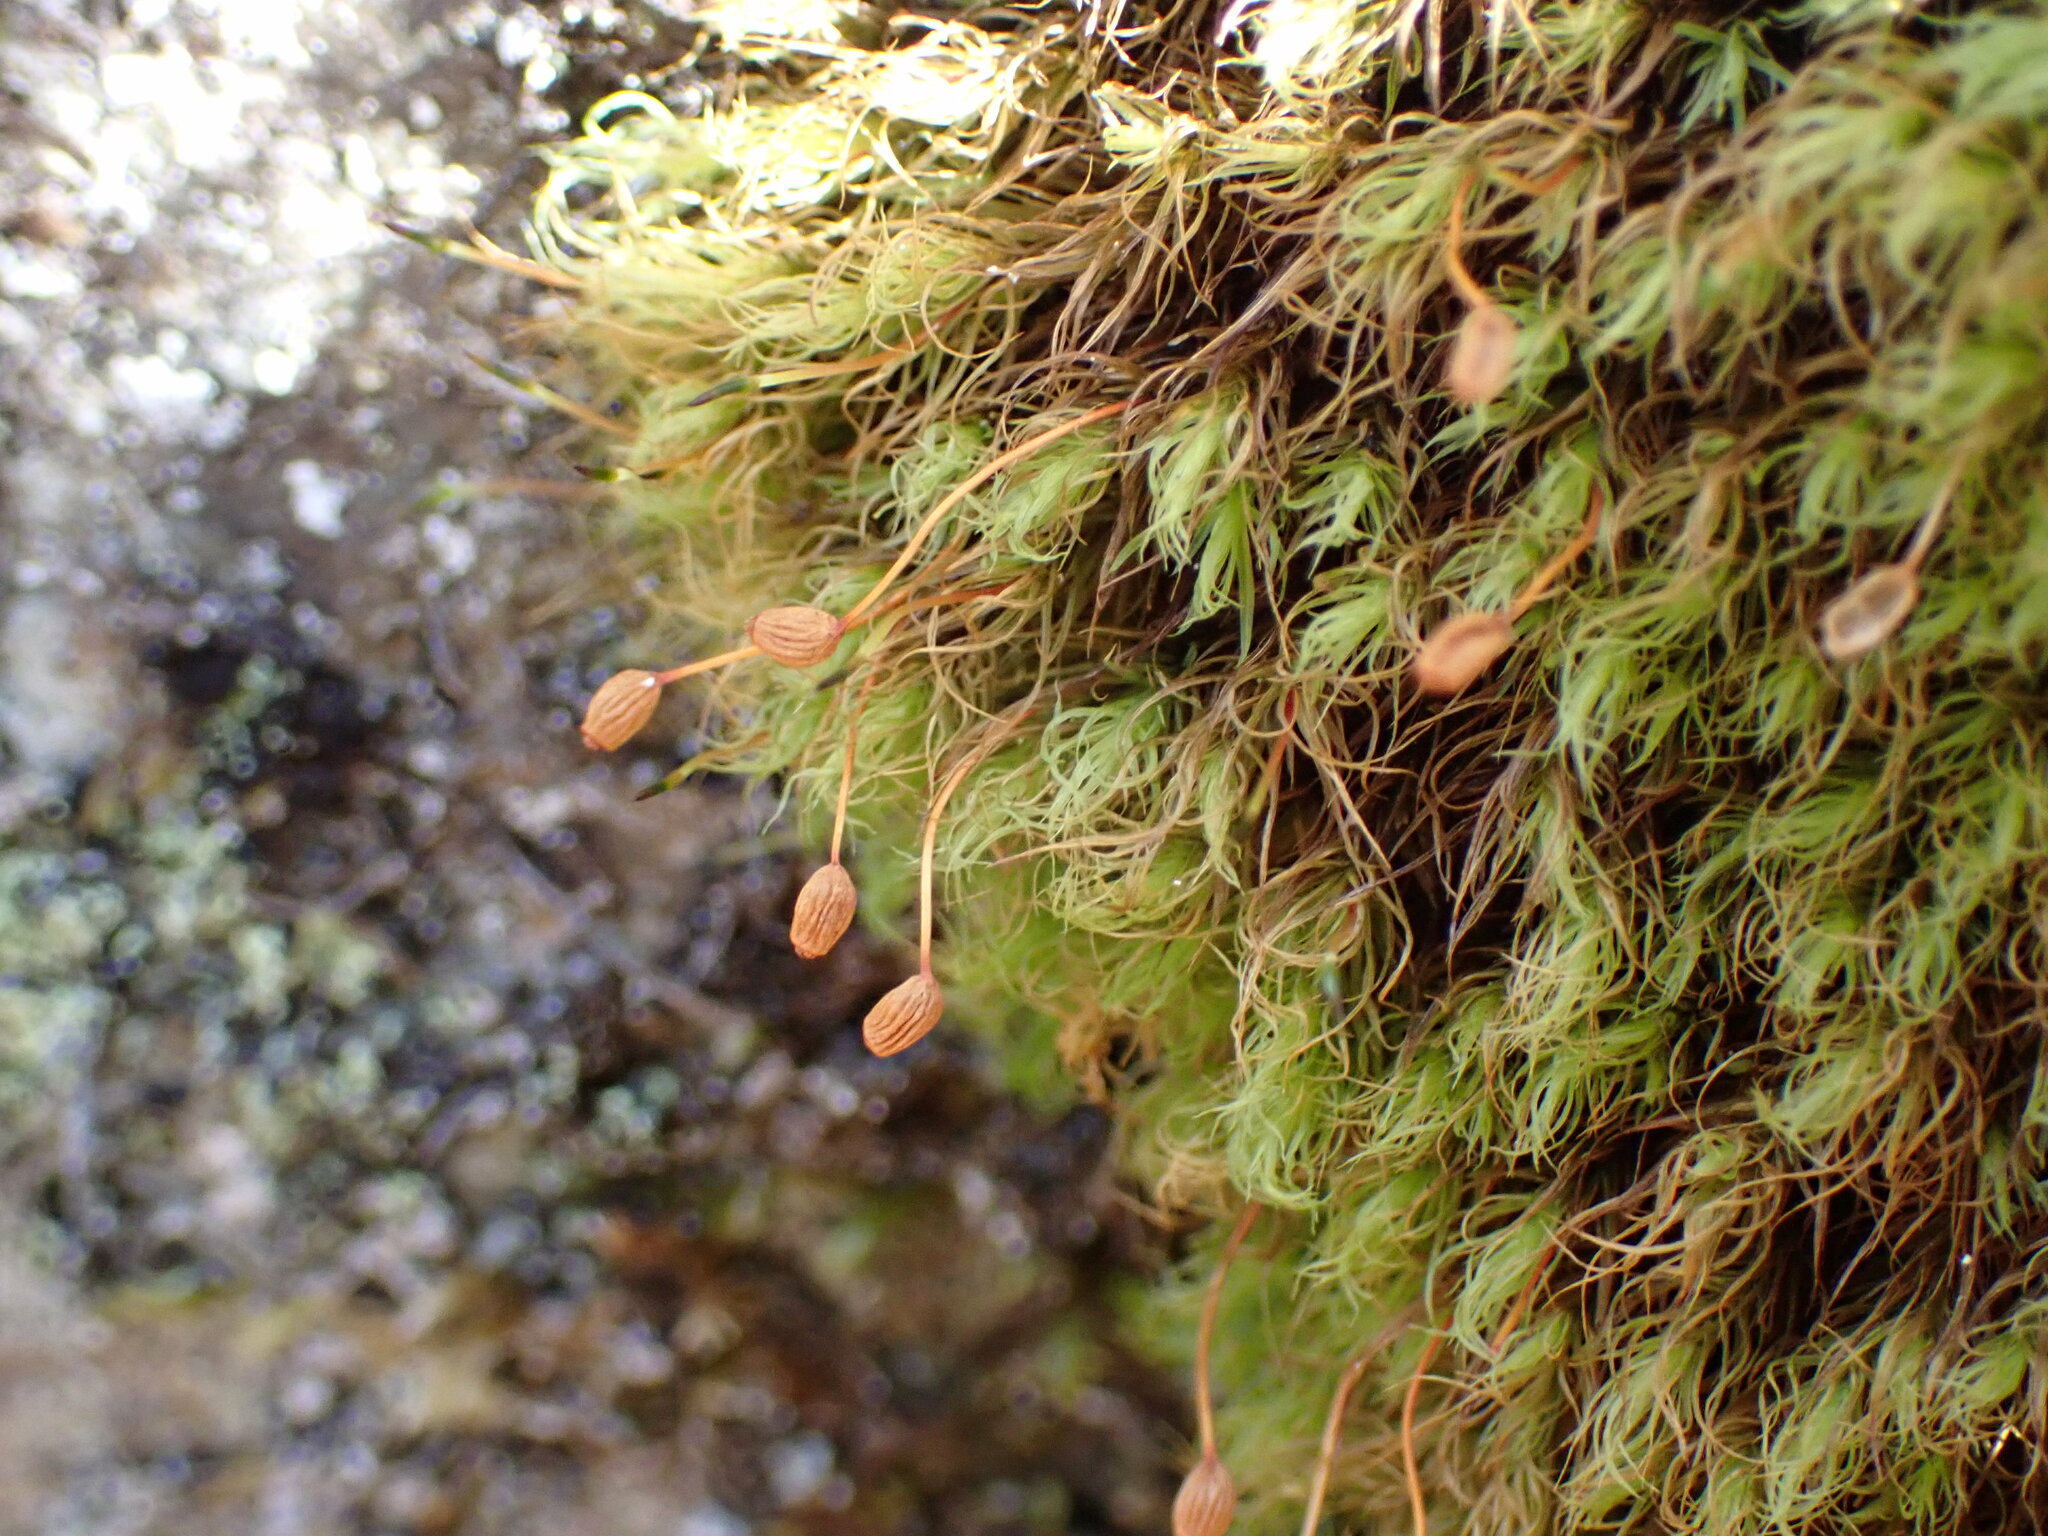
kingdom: Plantae
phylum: Bryophyta
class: Bryopsida
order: Bartramiales
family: Bartramiaceae
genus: Bartramia
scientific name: Bartramia ithyphylla
